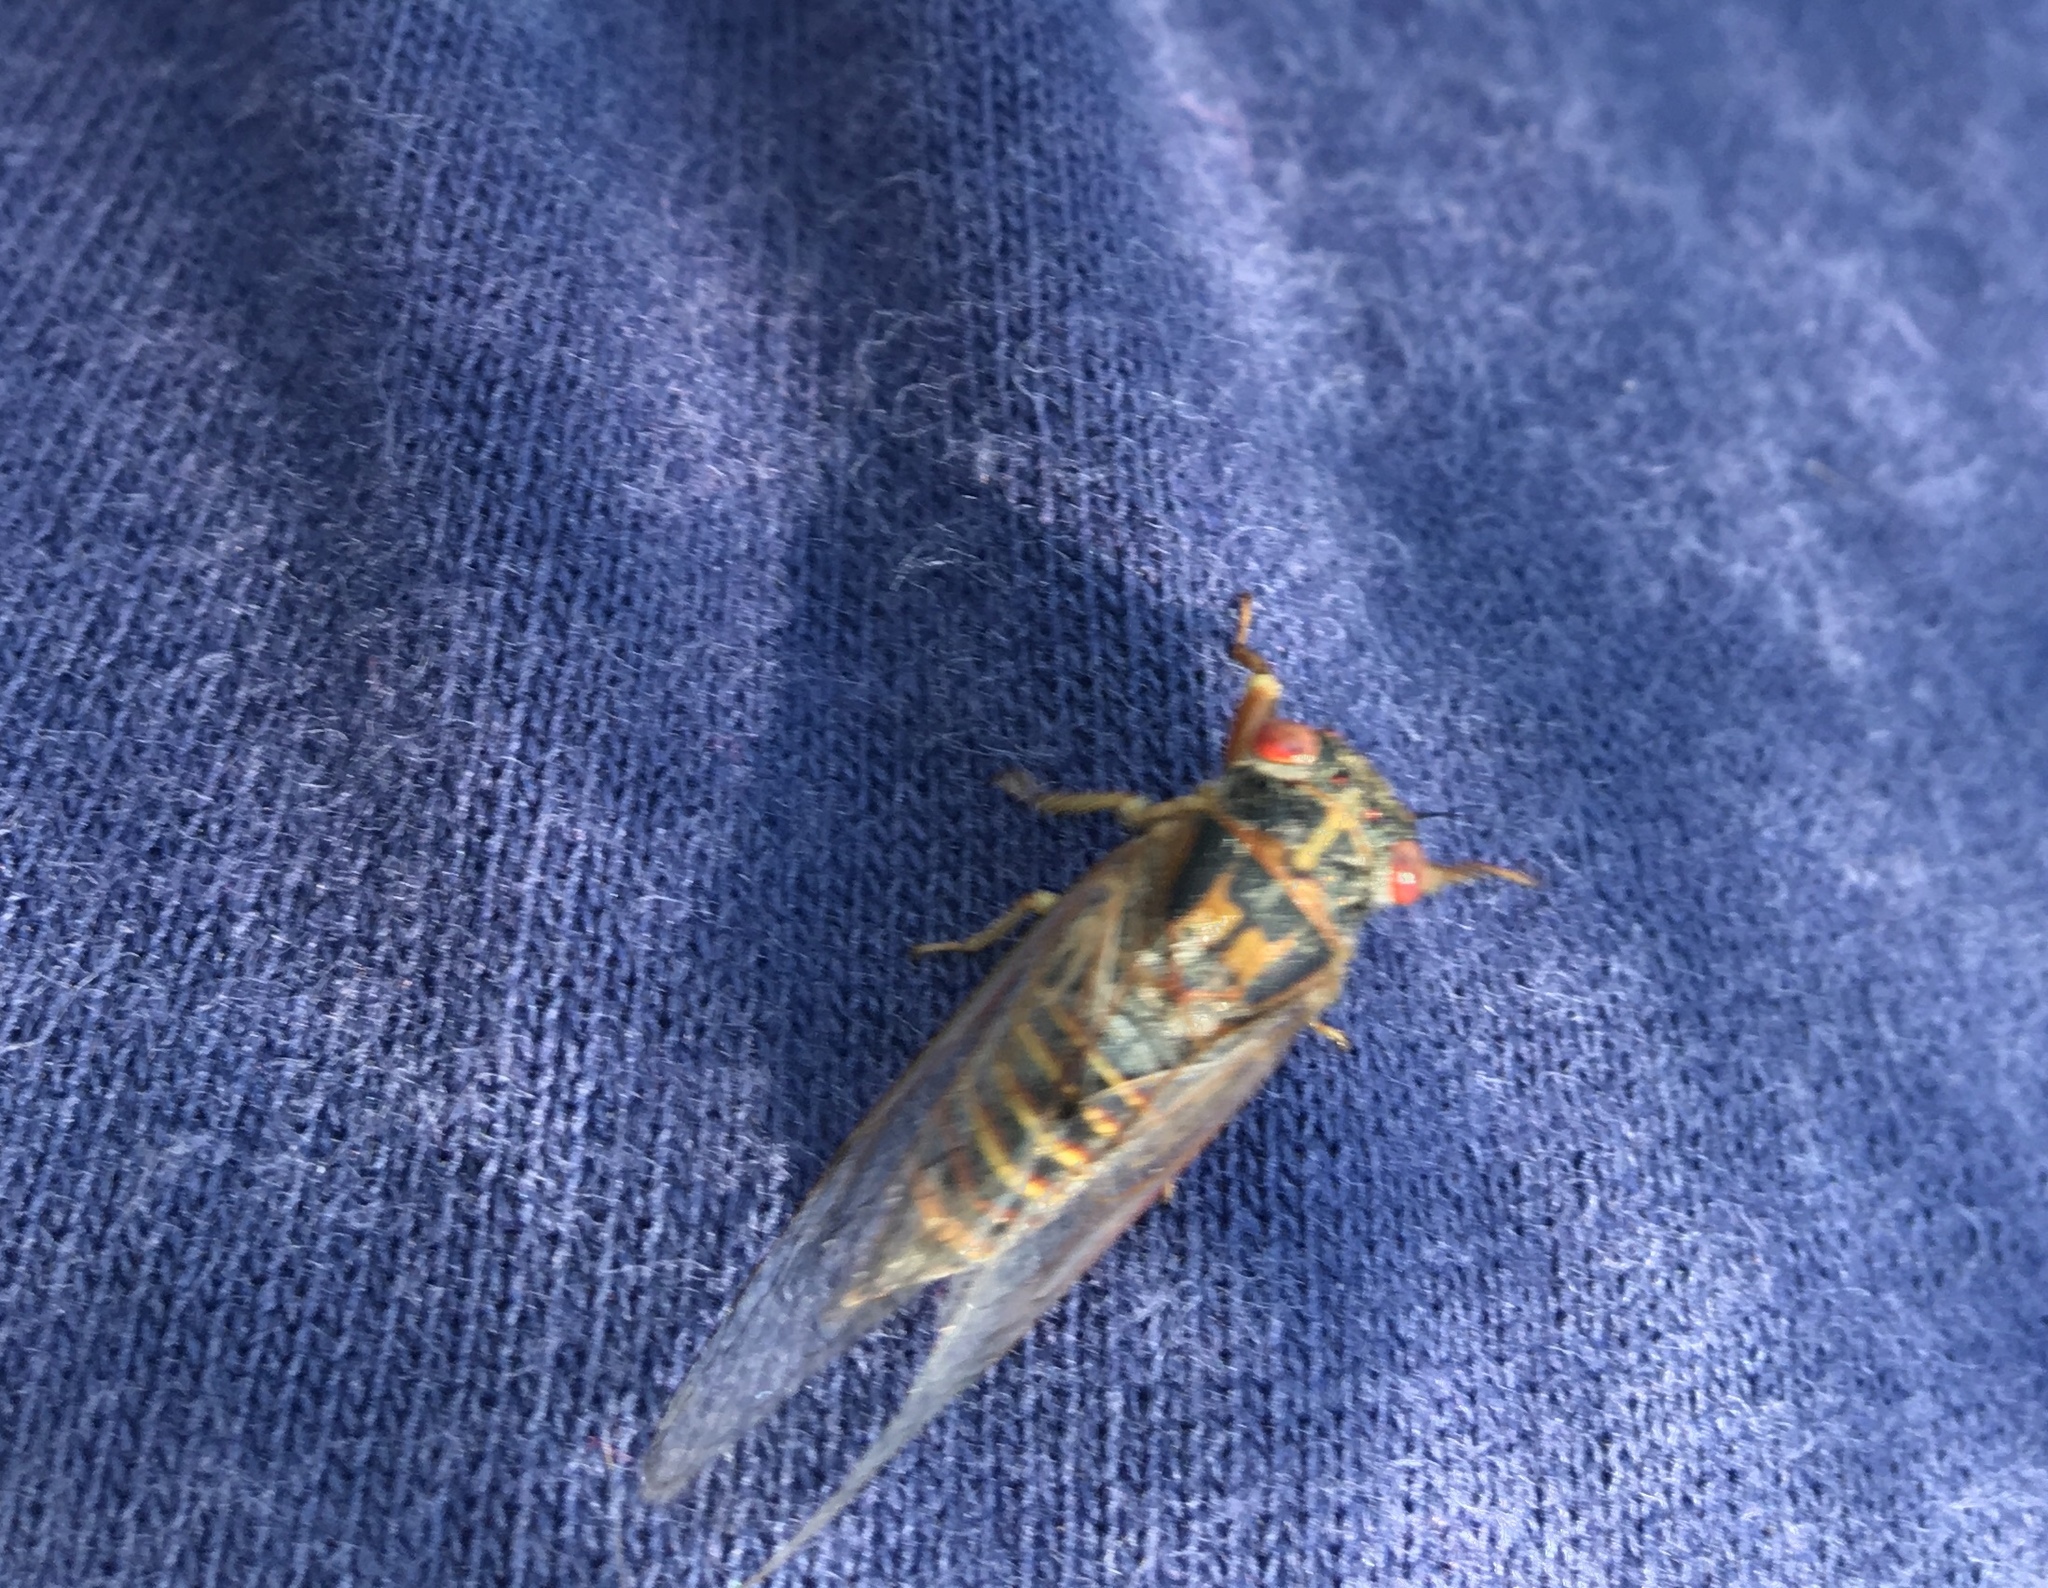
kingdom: Animalia
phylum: Arthropoda
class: Insecta
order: Hemiptera
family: Cicadidae
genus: Popplepsalta
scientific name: Popplepsalta notialis
